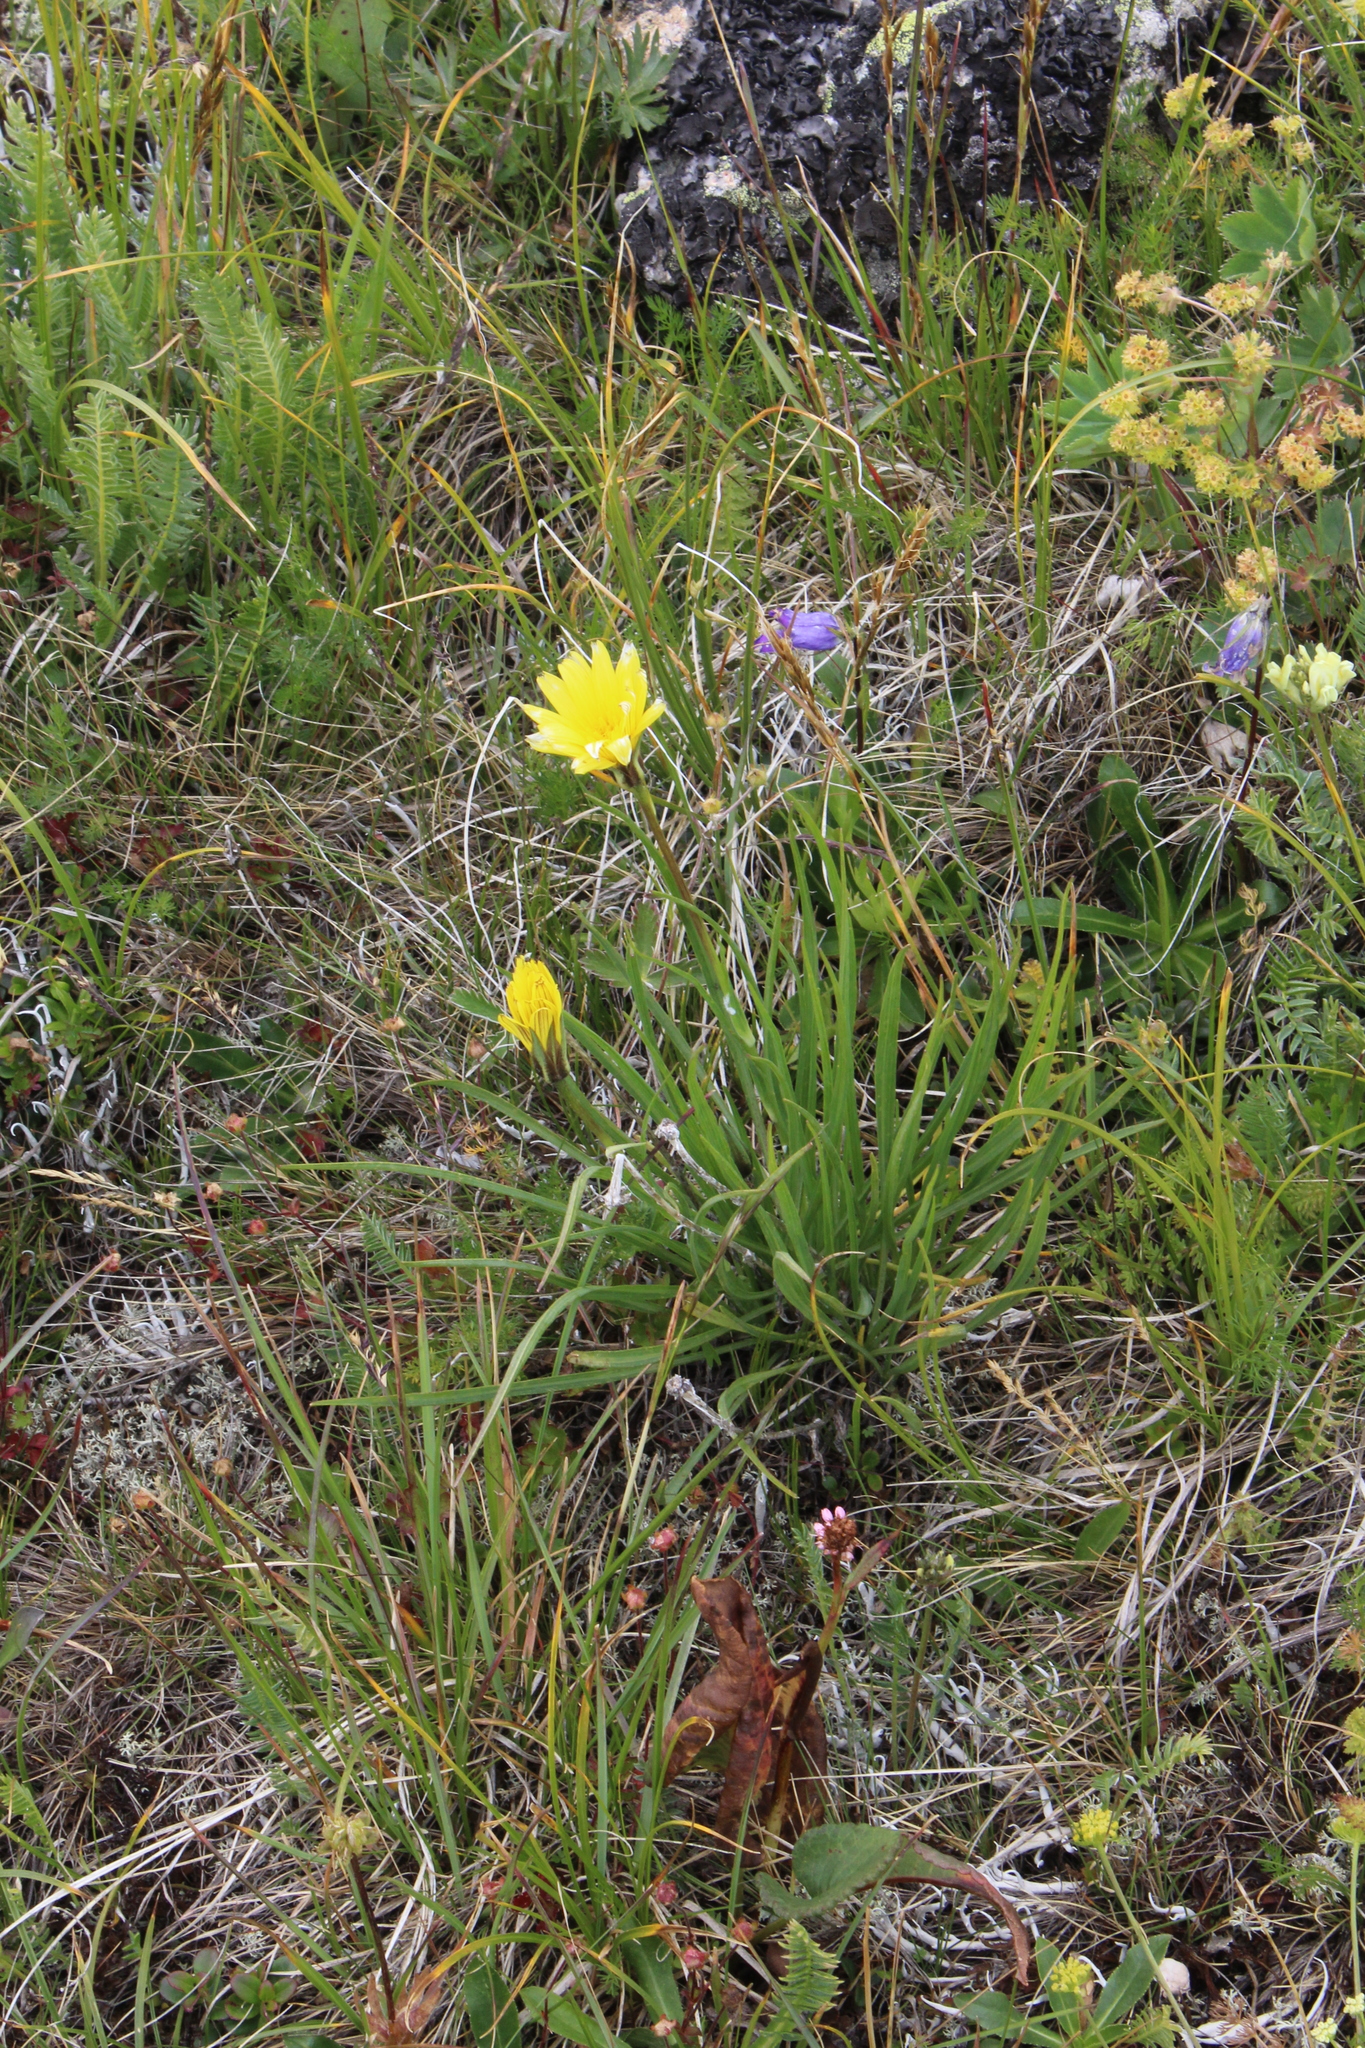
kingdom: Plantae
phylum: Tracheophyta
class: Magnoliopsida
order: Asterales
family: Asteraceae
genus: Tragopogon
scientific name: Tragopogon reticulatus
